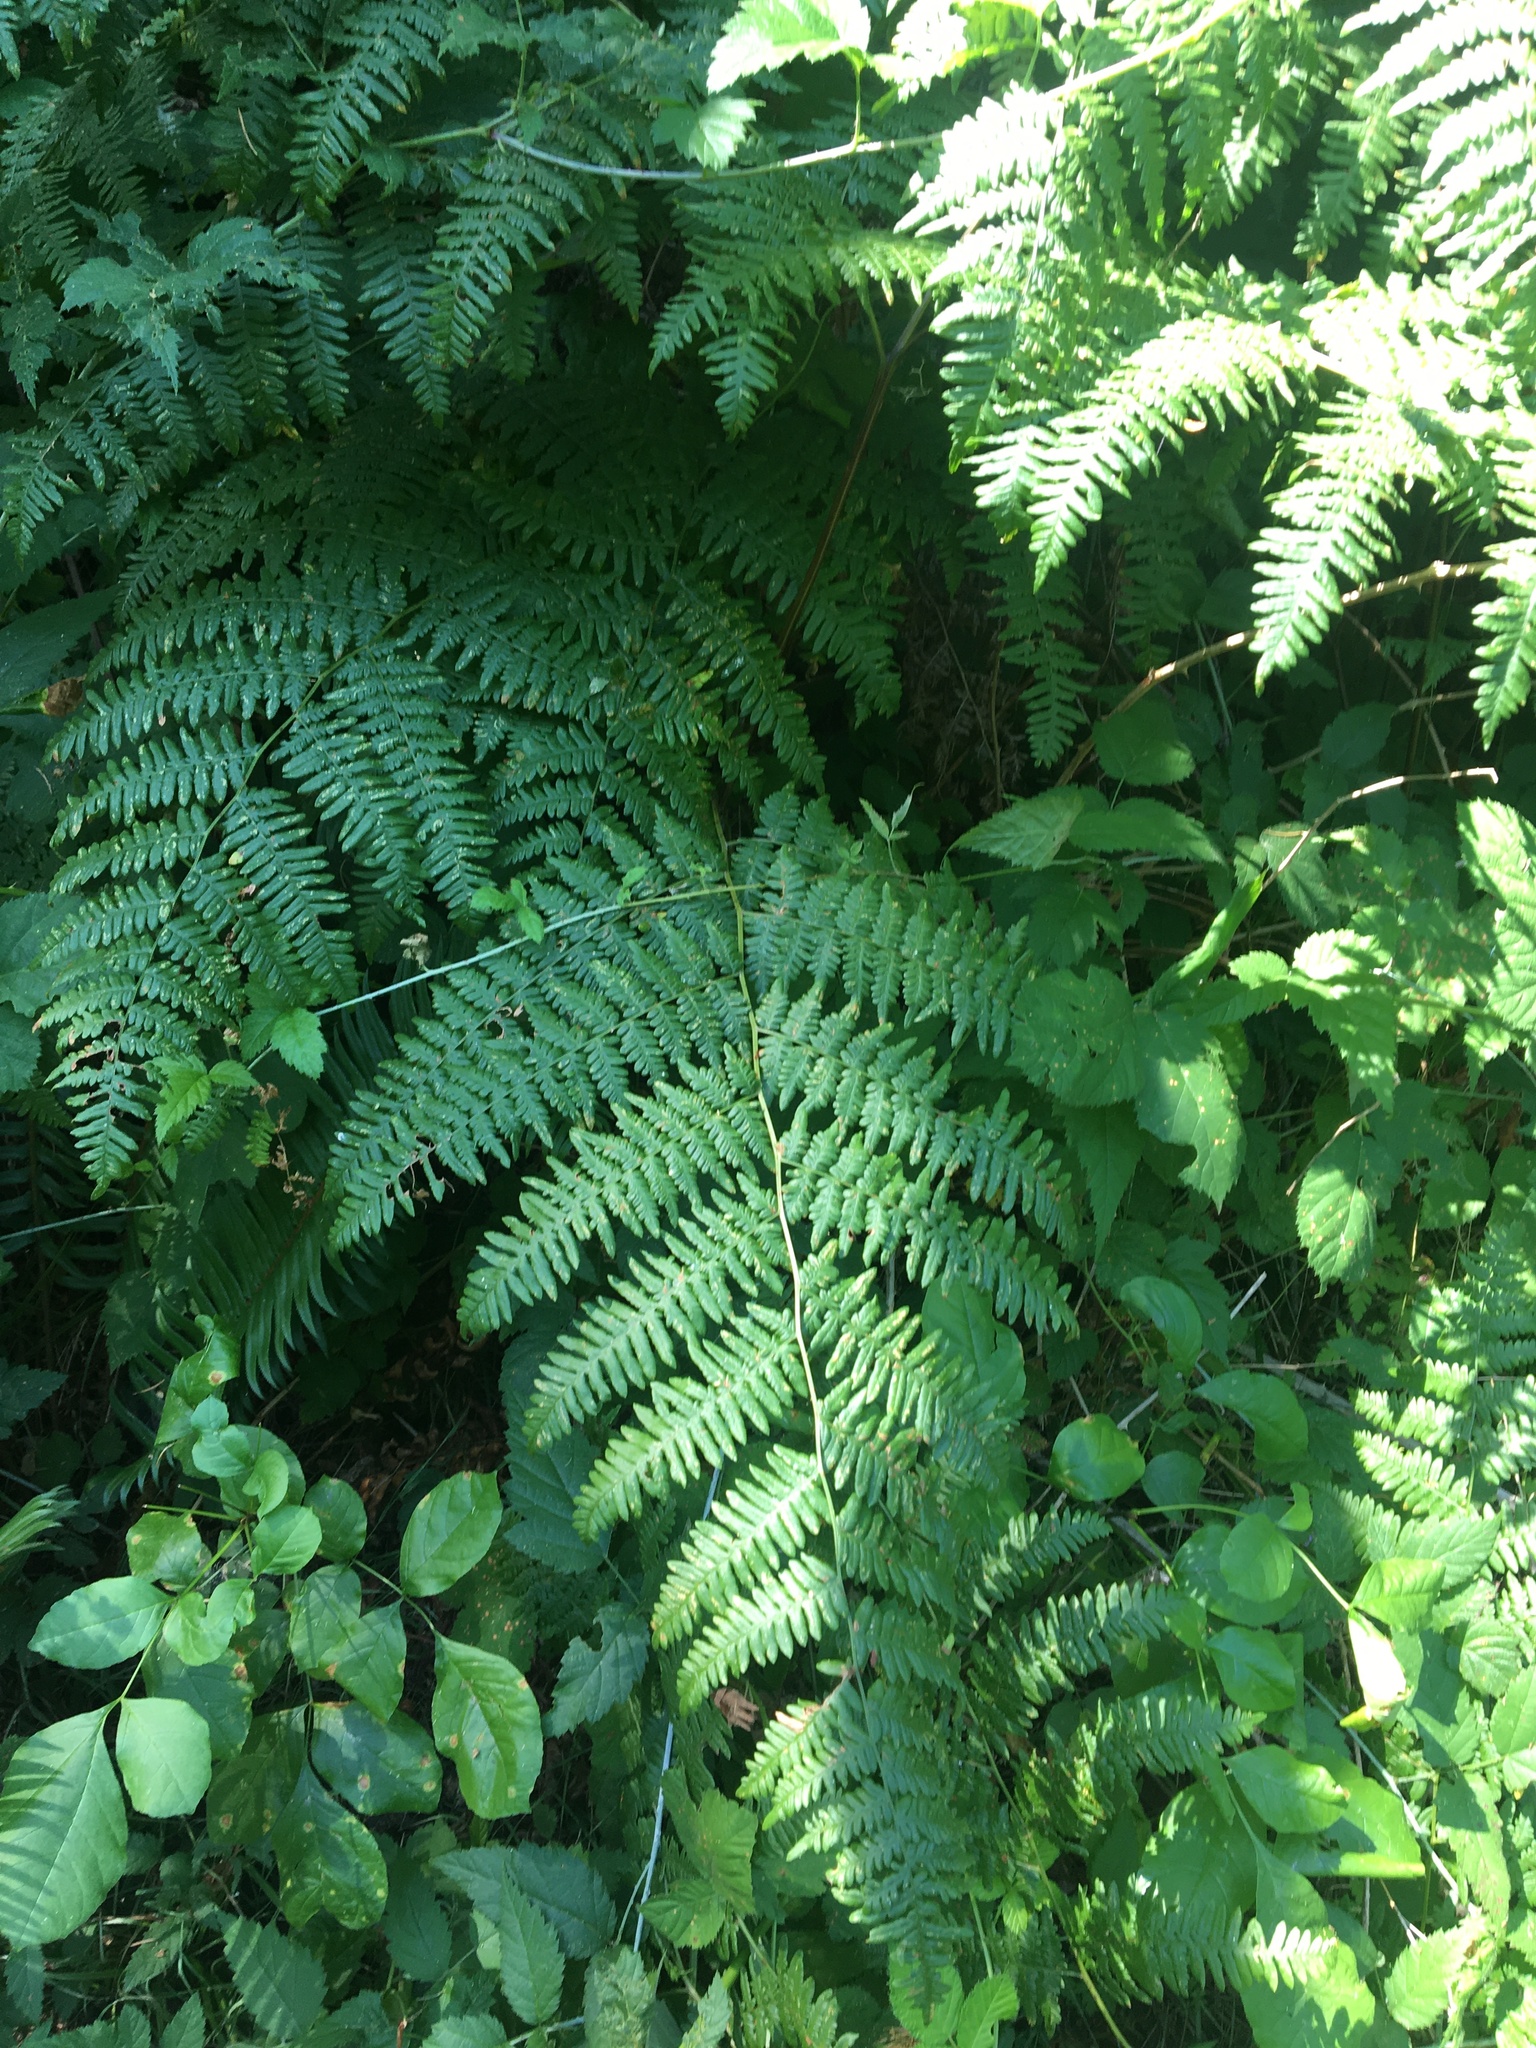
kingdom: Plantae
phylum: Tracheophyta
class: Polypodiopsida
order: Polypodiales
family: Dennstaedtiaceae
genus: Pteridium
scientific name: Pteridium aquilinum
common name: Bracken
